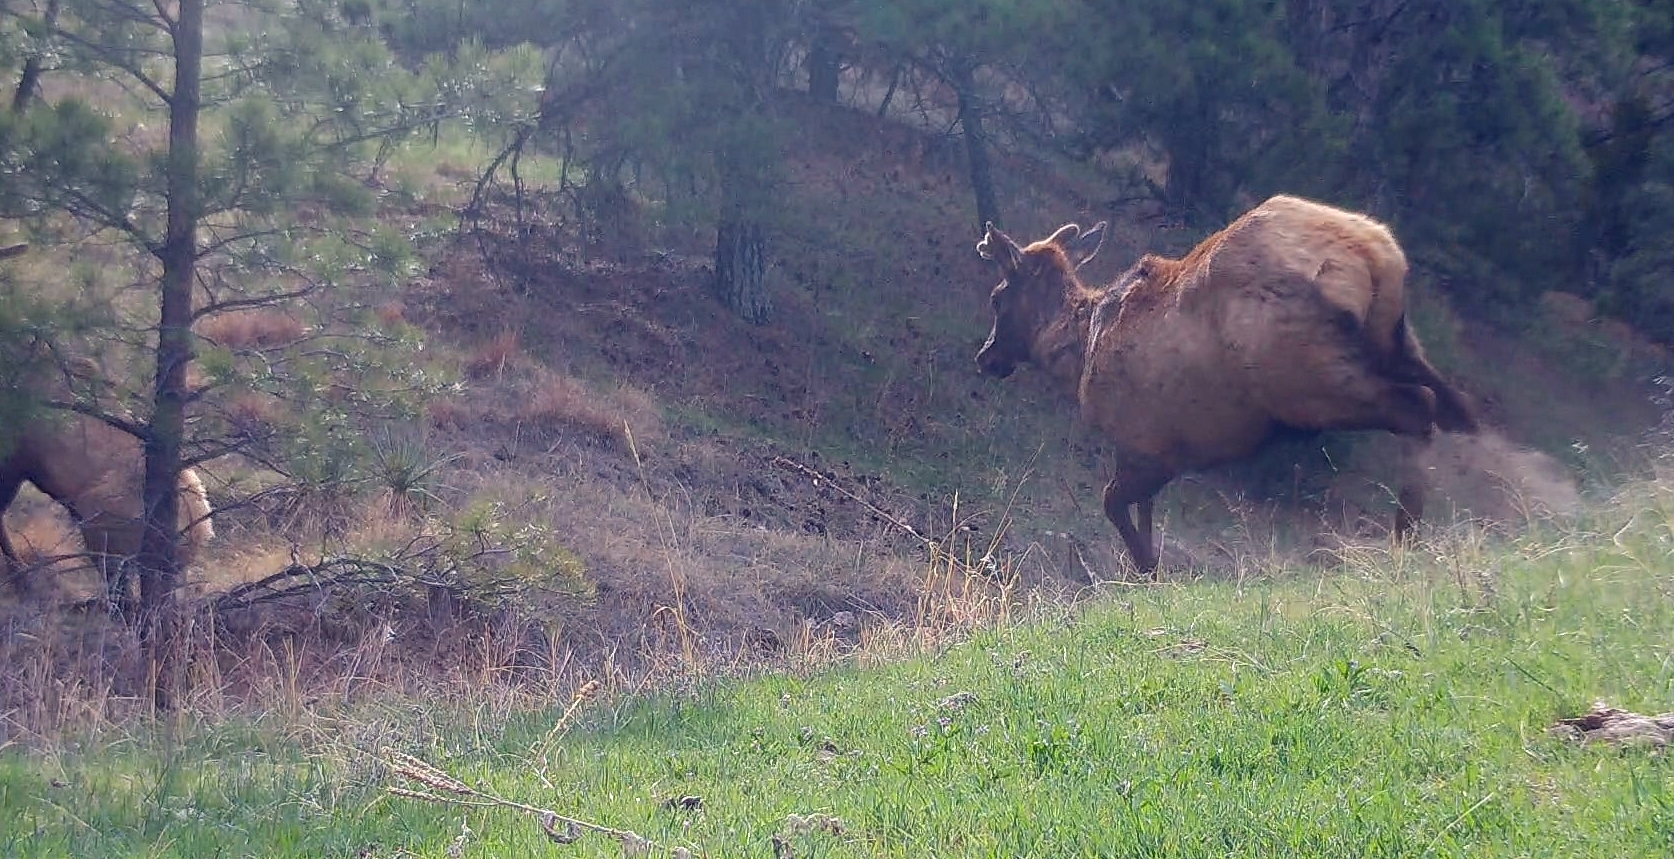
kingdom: Animalia
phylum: Chordata
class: Mammalia
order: Artiodactyla
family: Cervidae
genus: Cervus
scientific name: Cervus elaphus
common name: Red deer
